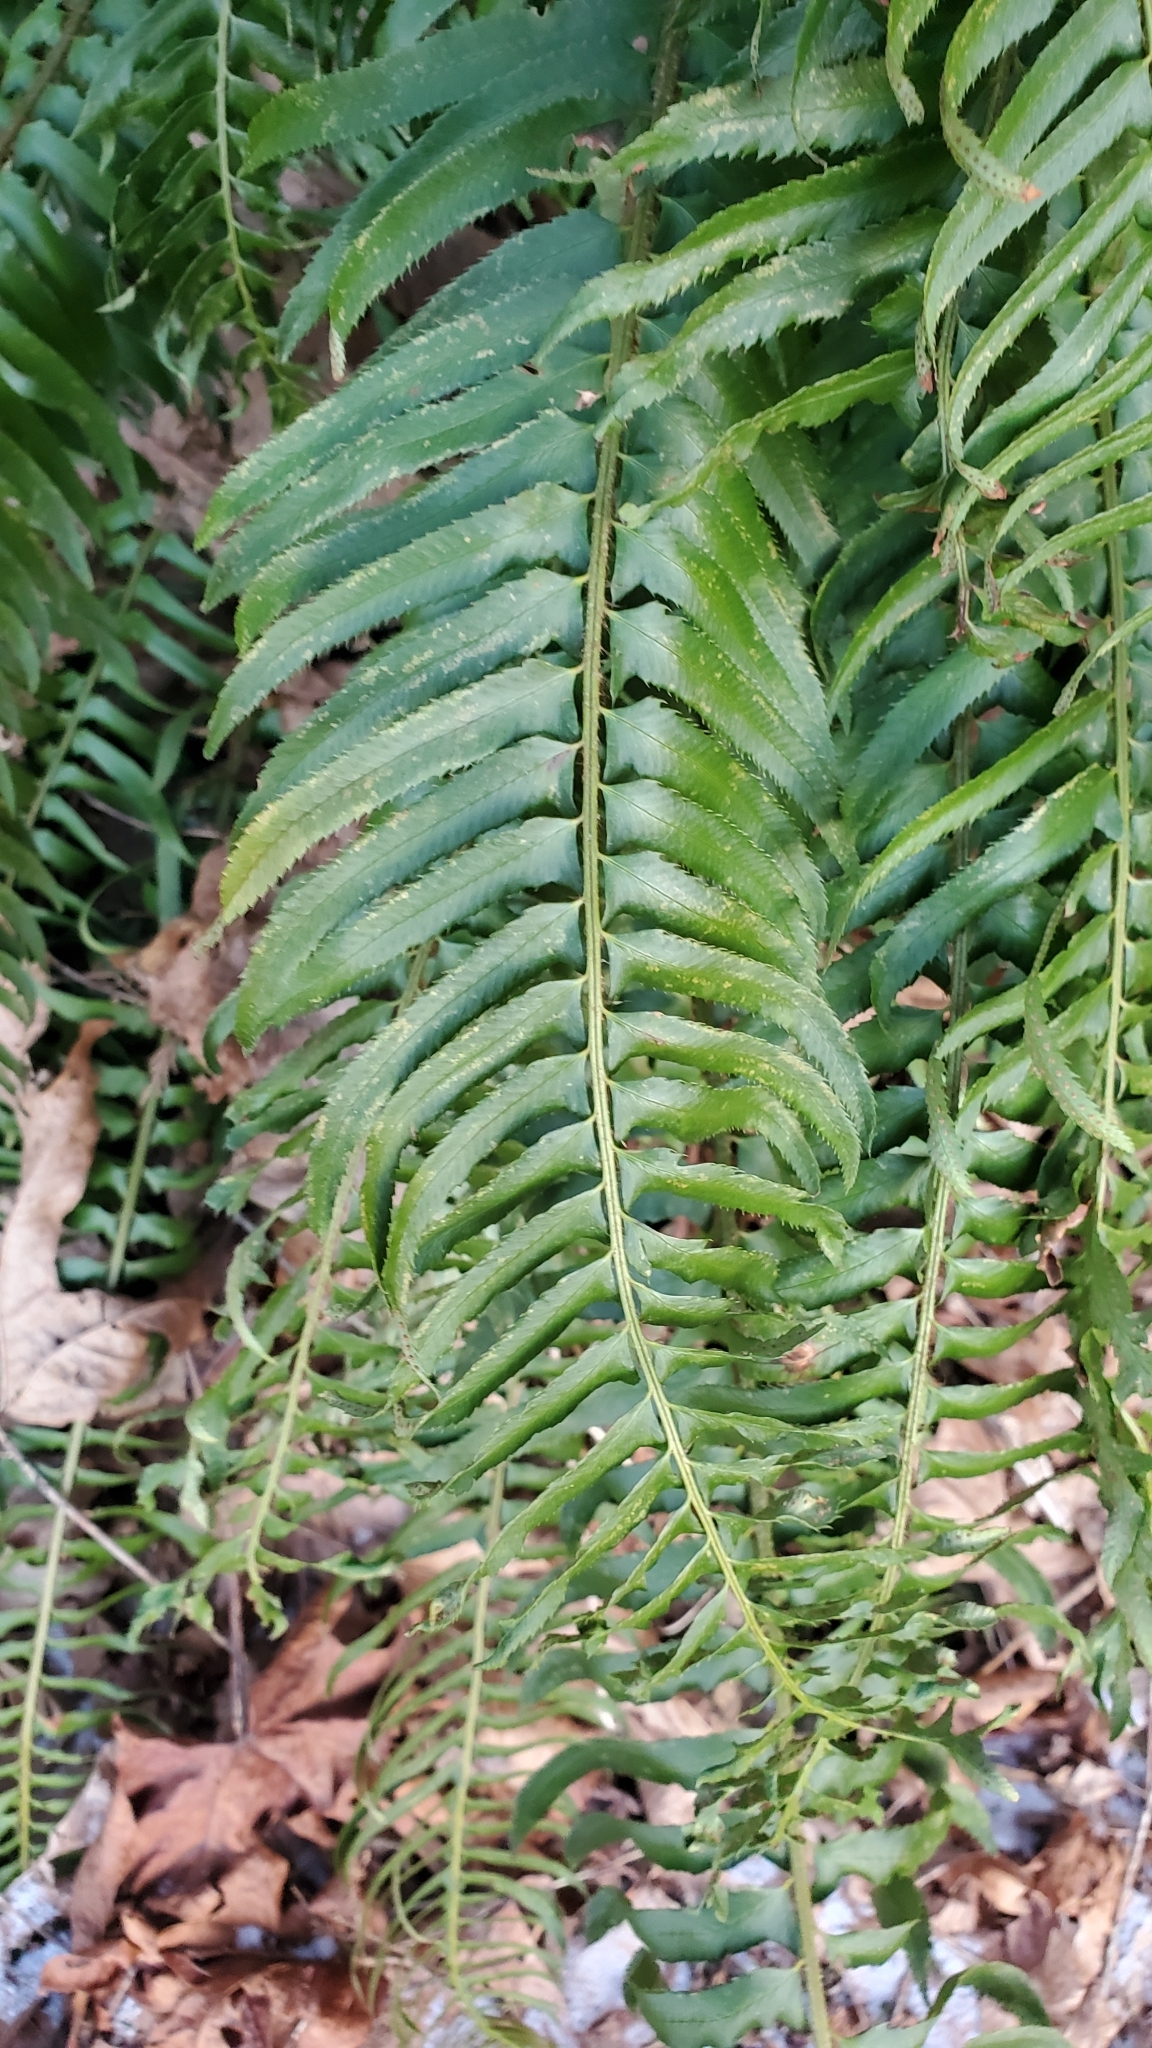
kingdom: Plantae
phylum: Tracheophyta
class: Polypodiopsida
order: Polypodiales
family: Dryopteridaceae
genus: Polystichum
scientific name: Polystichum munitum
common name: Western sword-fern
